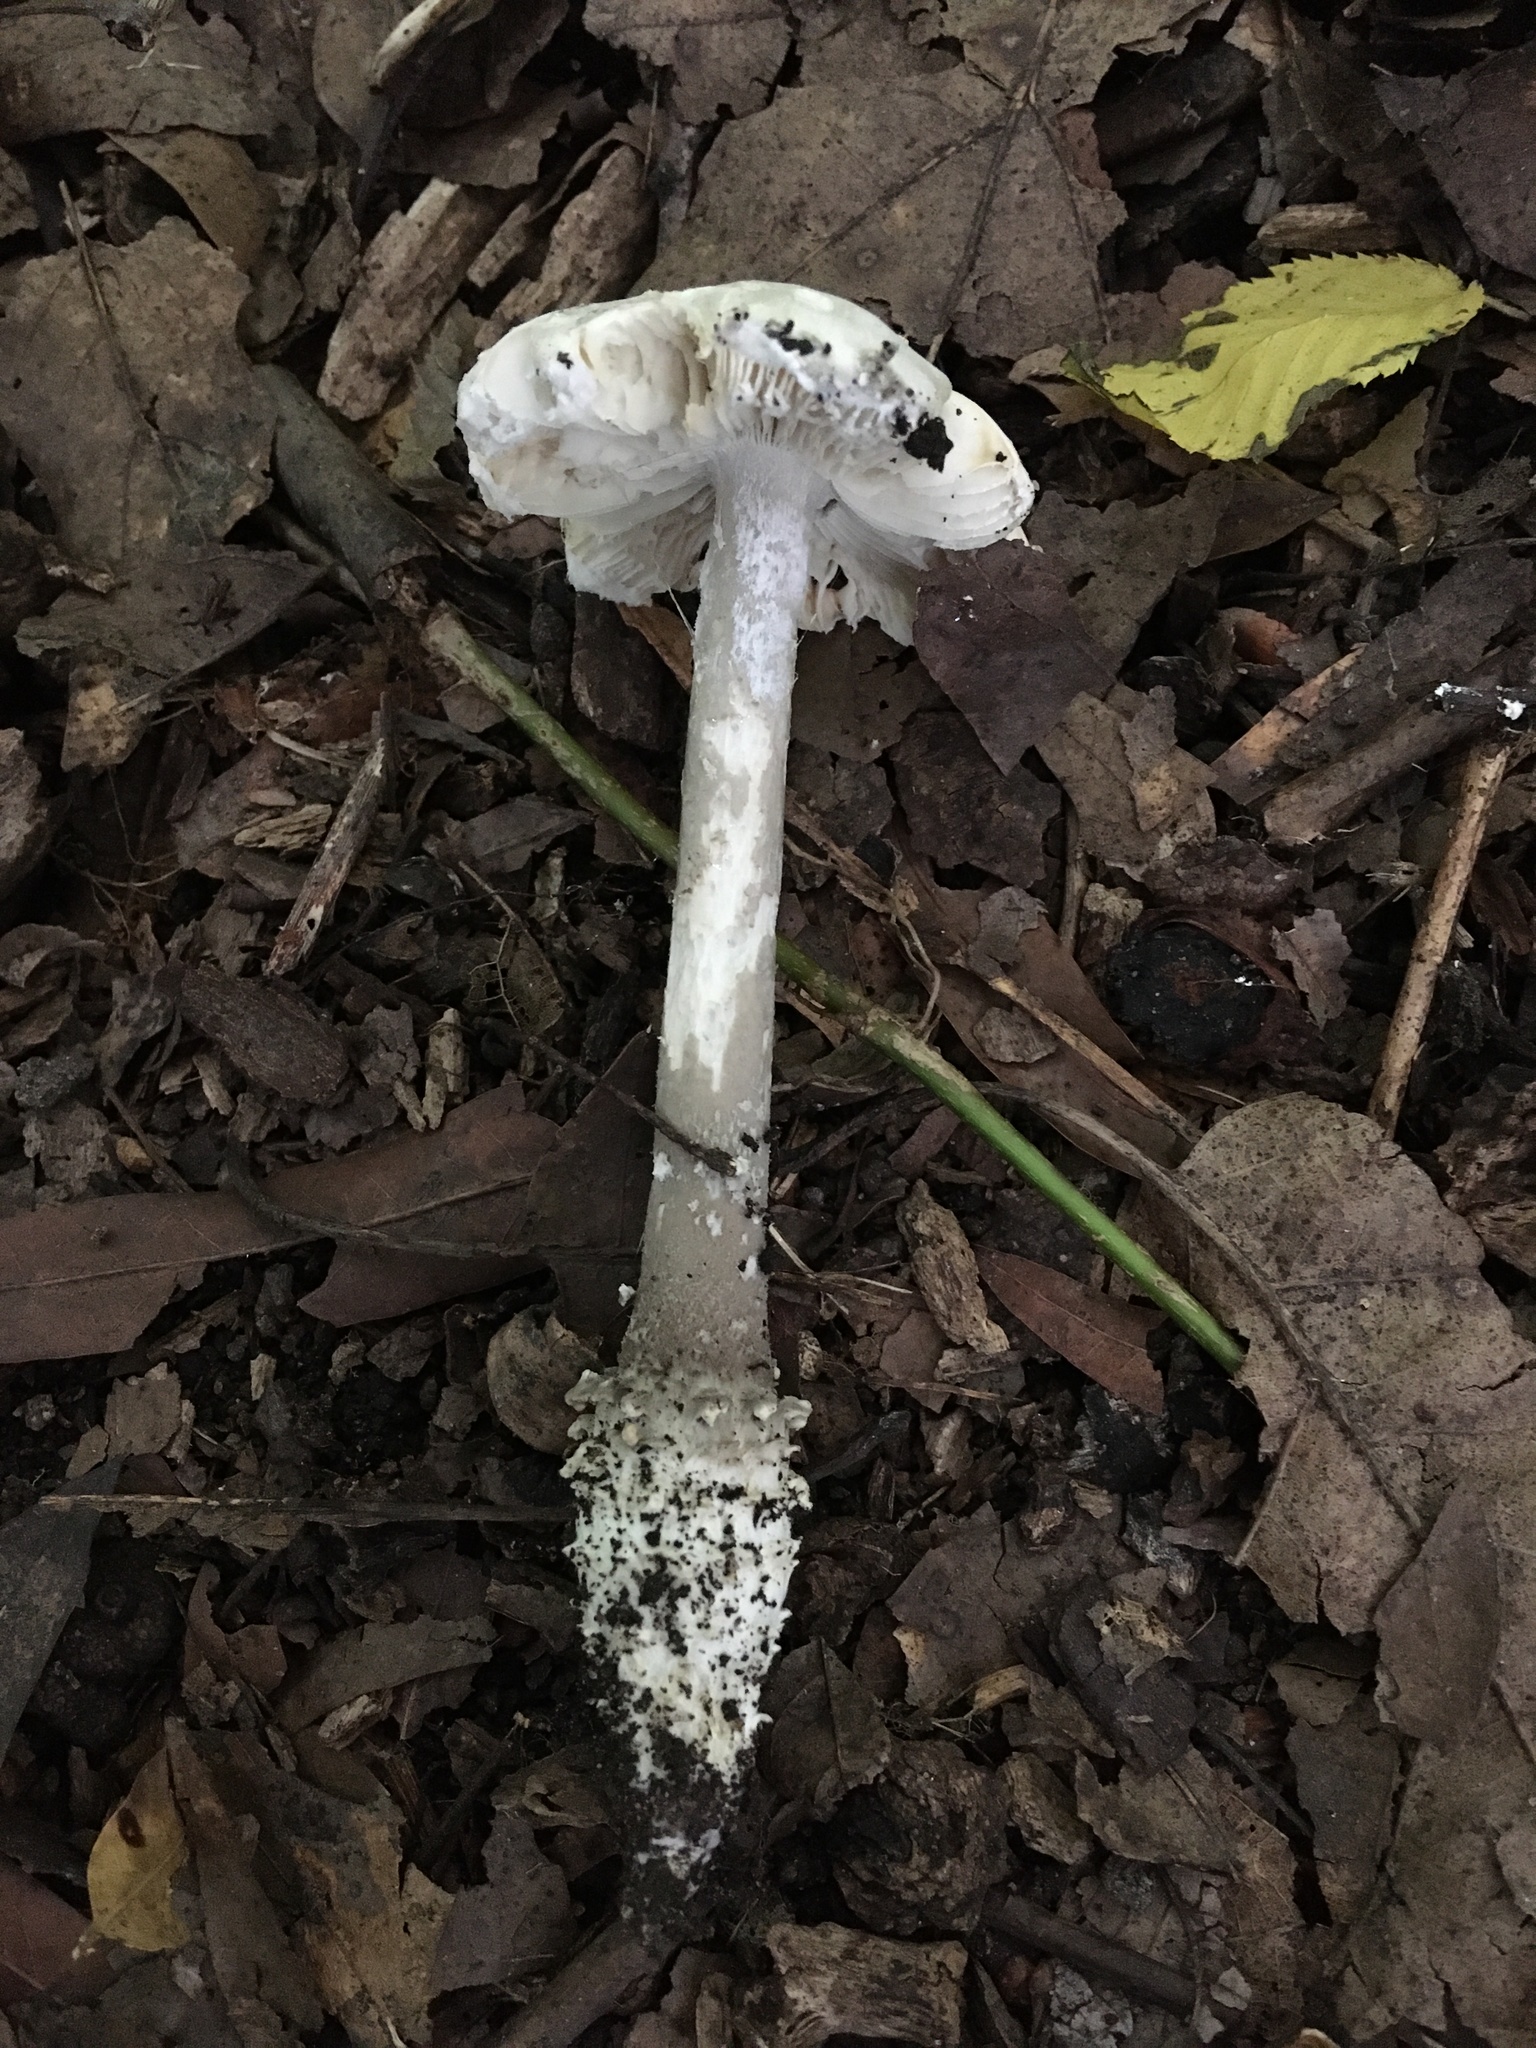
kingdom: Fungi
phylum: Basidiomycota
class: Agaricomycetes
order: Agaricales
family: Amanitaceae
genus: Amanita
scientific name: Amanita onusta
